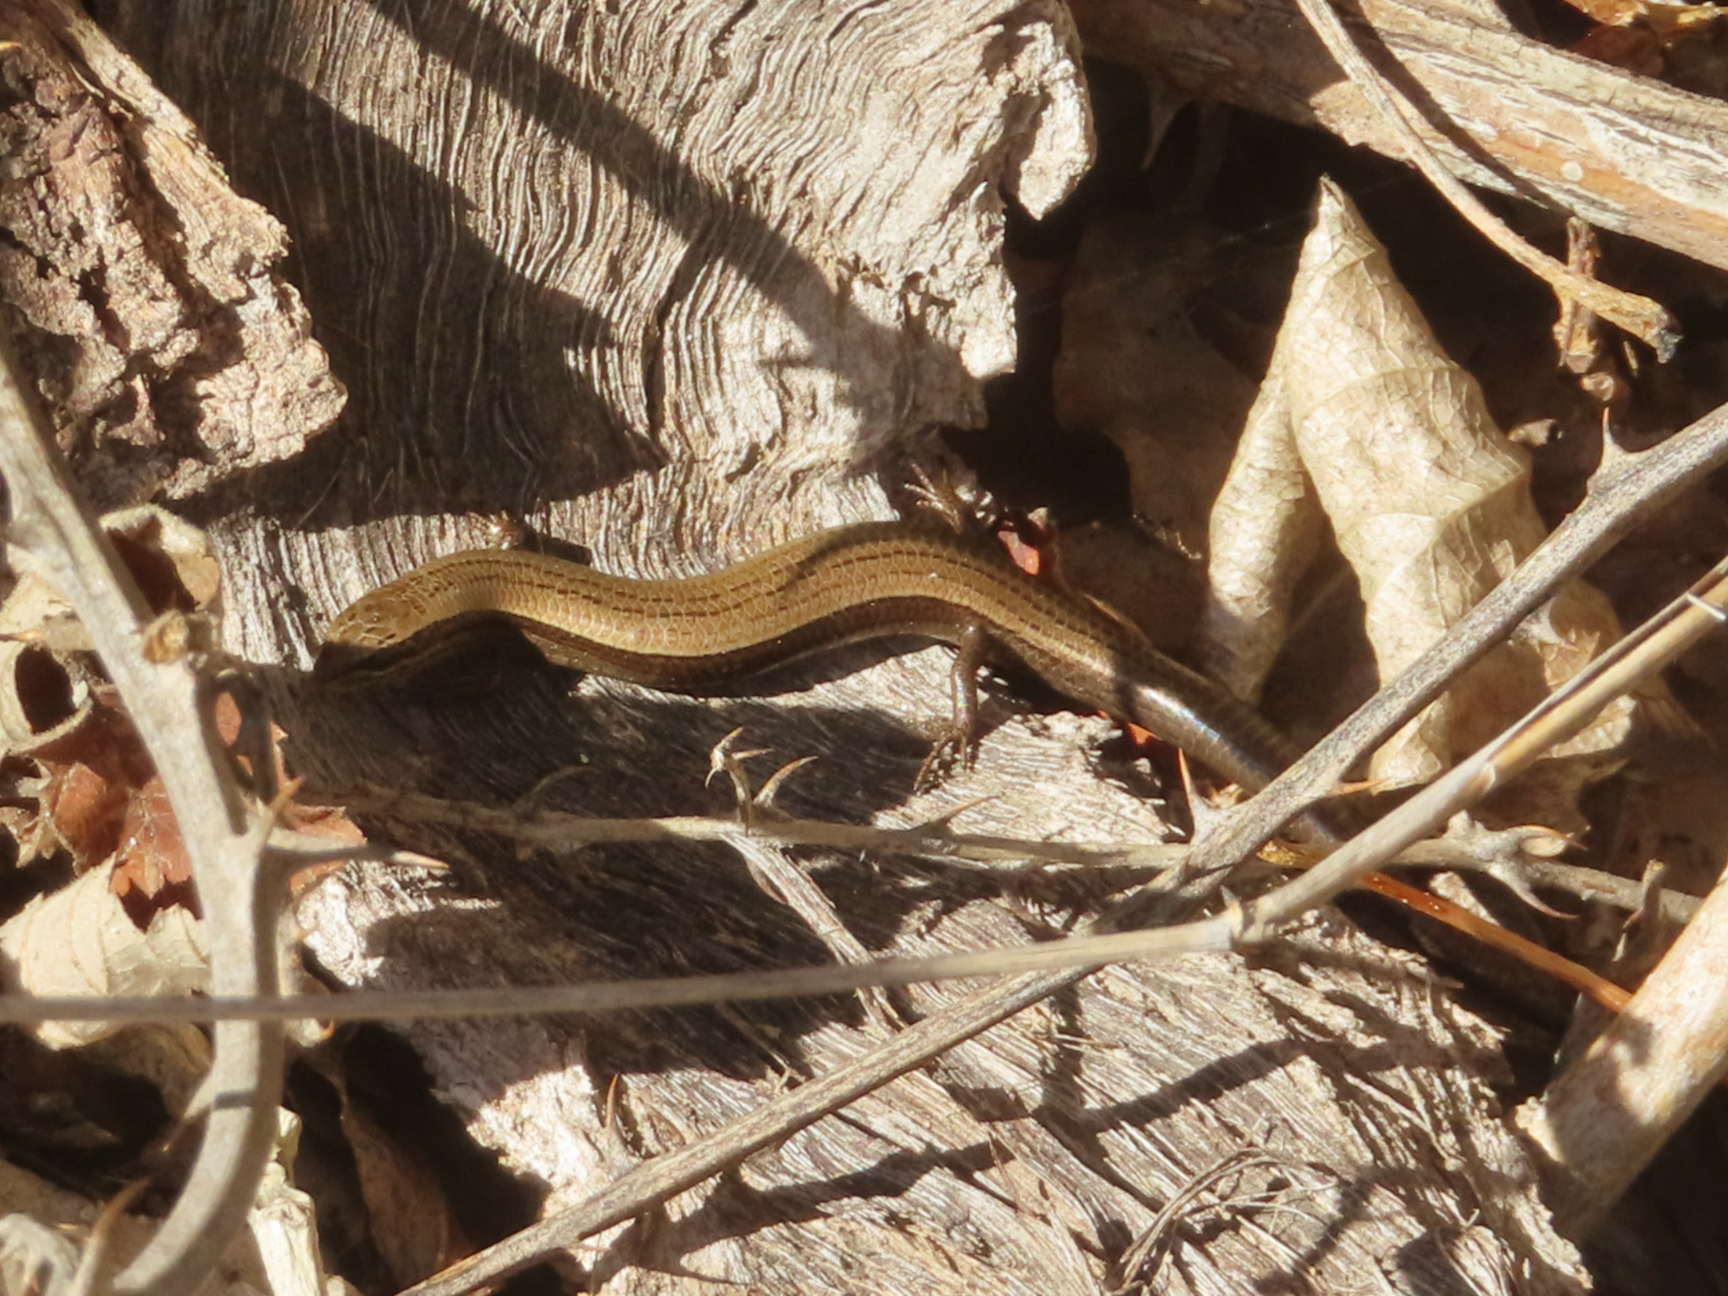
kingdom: Animalia
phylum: Chordata
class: Squamata
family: Scincidae
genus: Ablepharus
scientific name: Ablepharus kitaibelii
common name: Juniper skink
